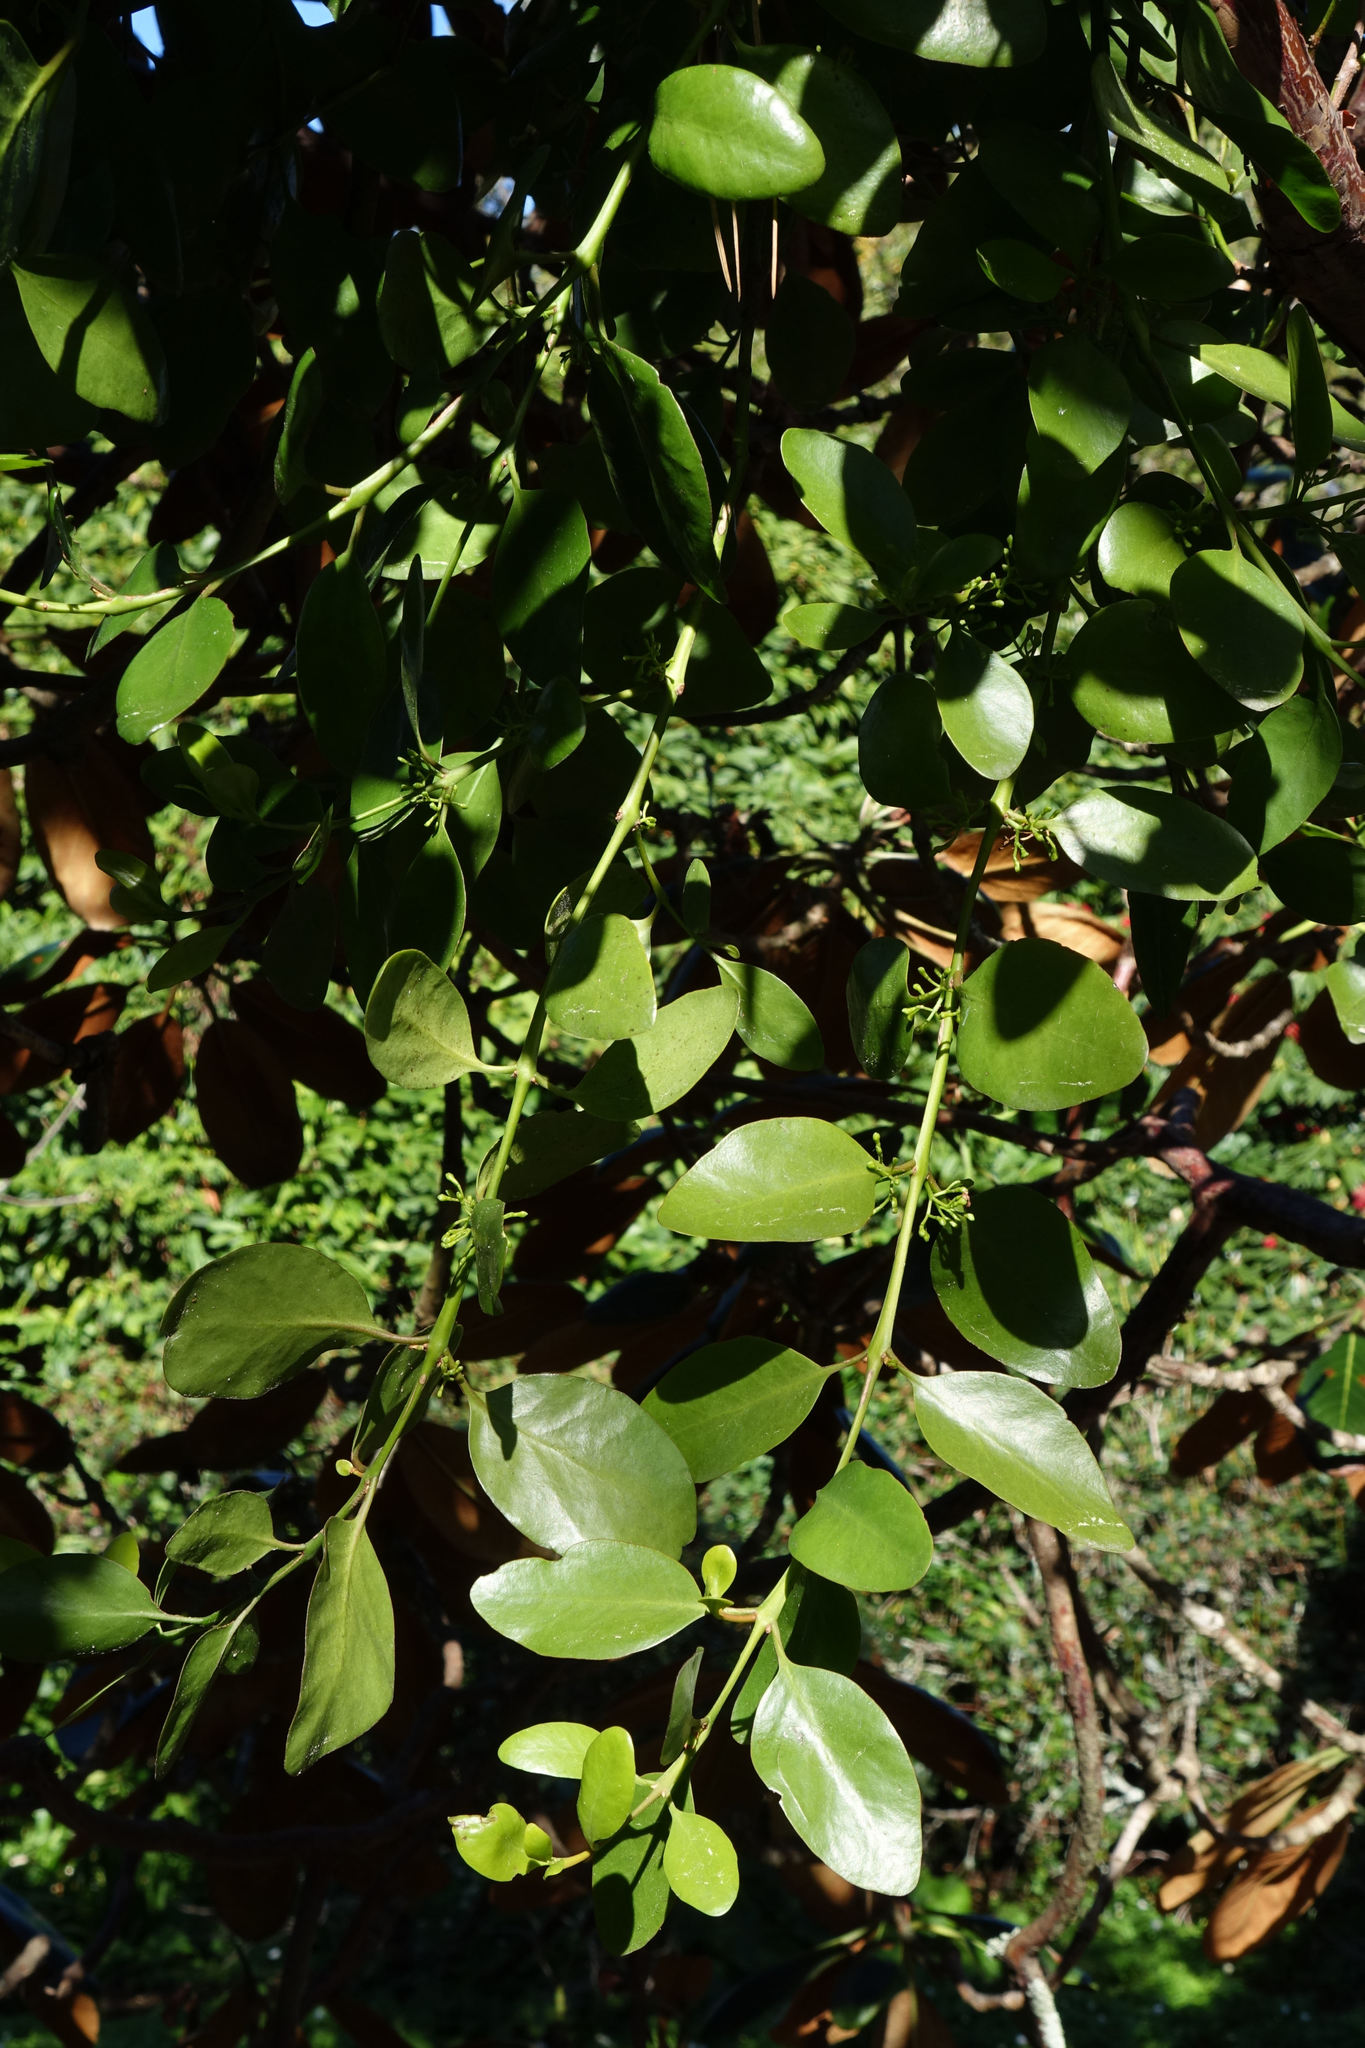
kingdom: Plantae
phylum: Tracheophyta
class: Magnoliopsida
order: Santalales
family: Loranthaceae
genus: Ileostylus
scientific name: Ileostylus micranthus
